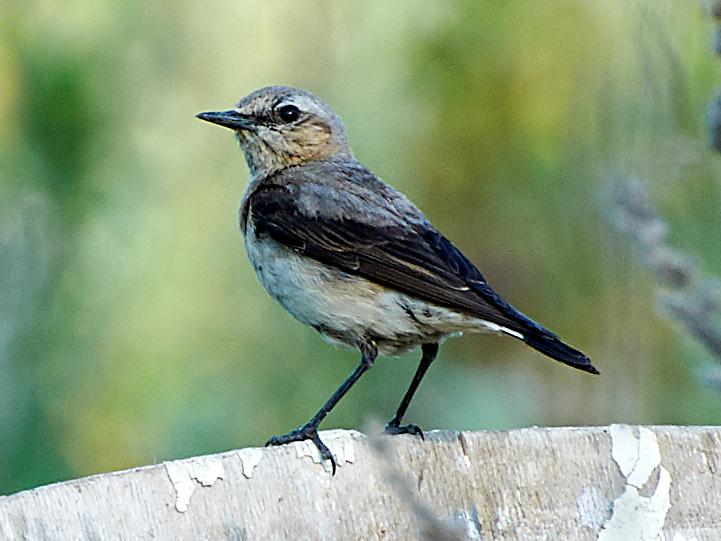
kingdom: Animalia
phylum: Chordata
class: Aves
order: Passeriformes
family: Muscicapidae
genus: Oenanthe
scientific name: Oenanthe oenanthe
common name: Northern wheatear
